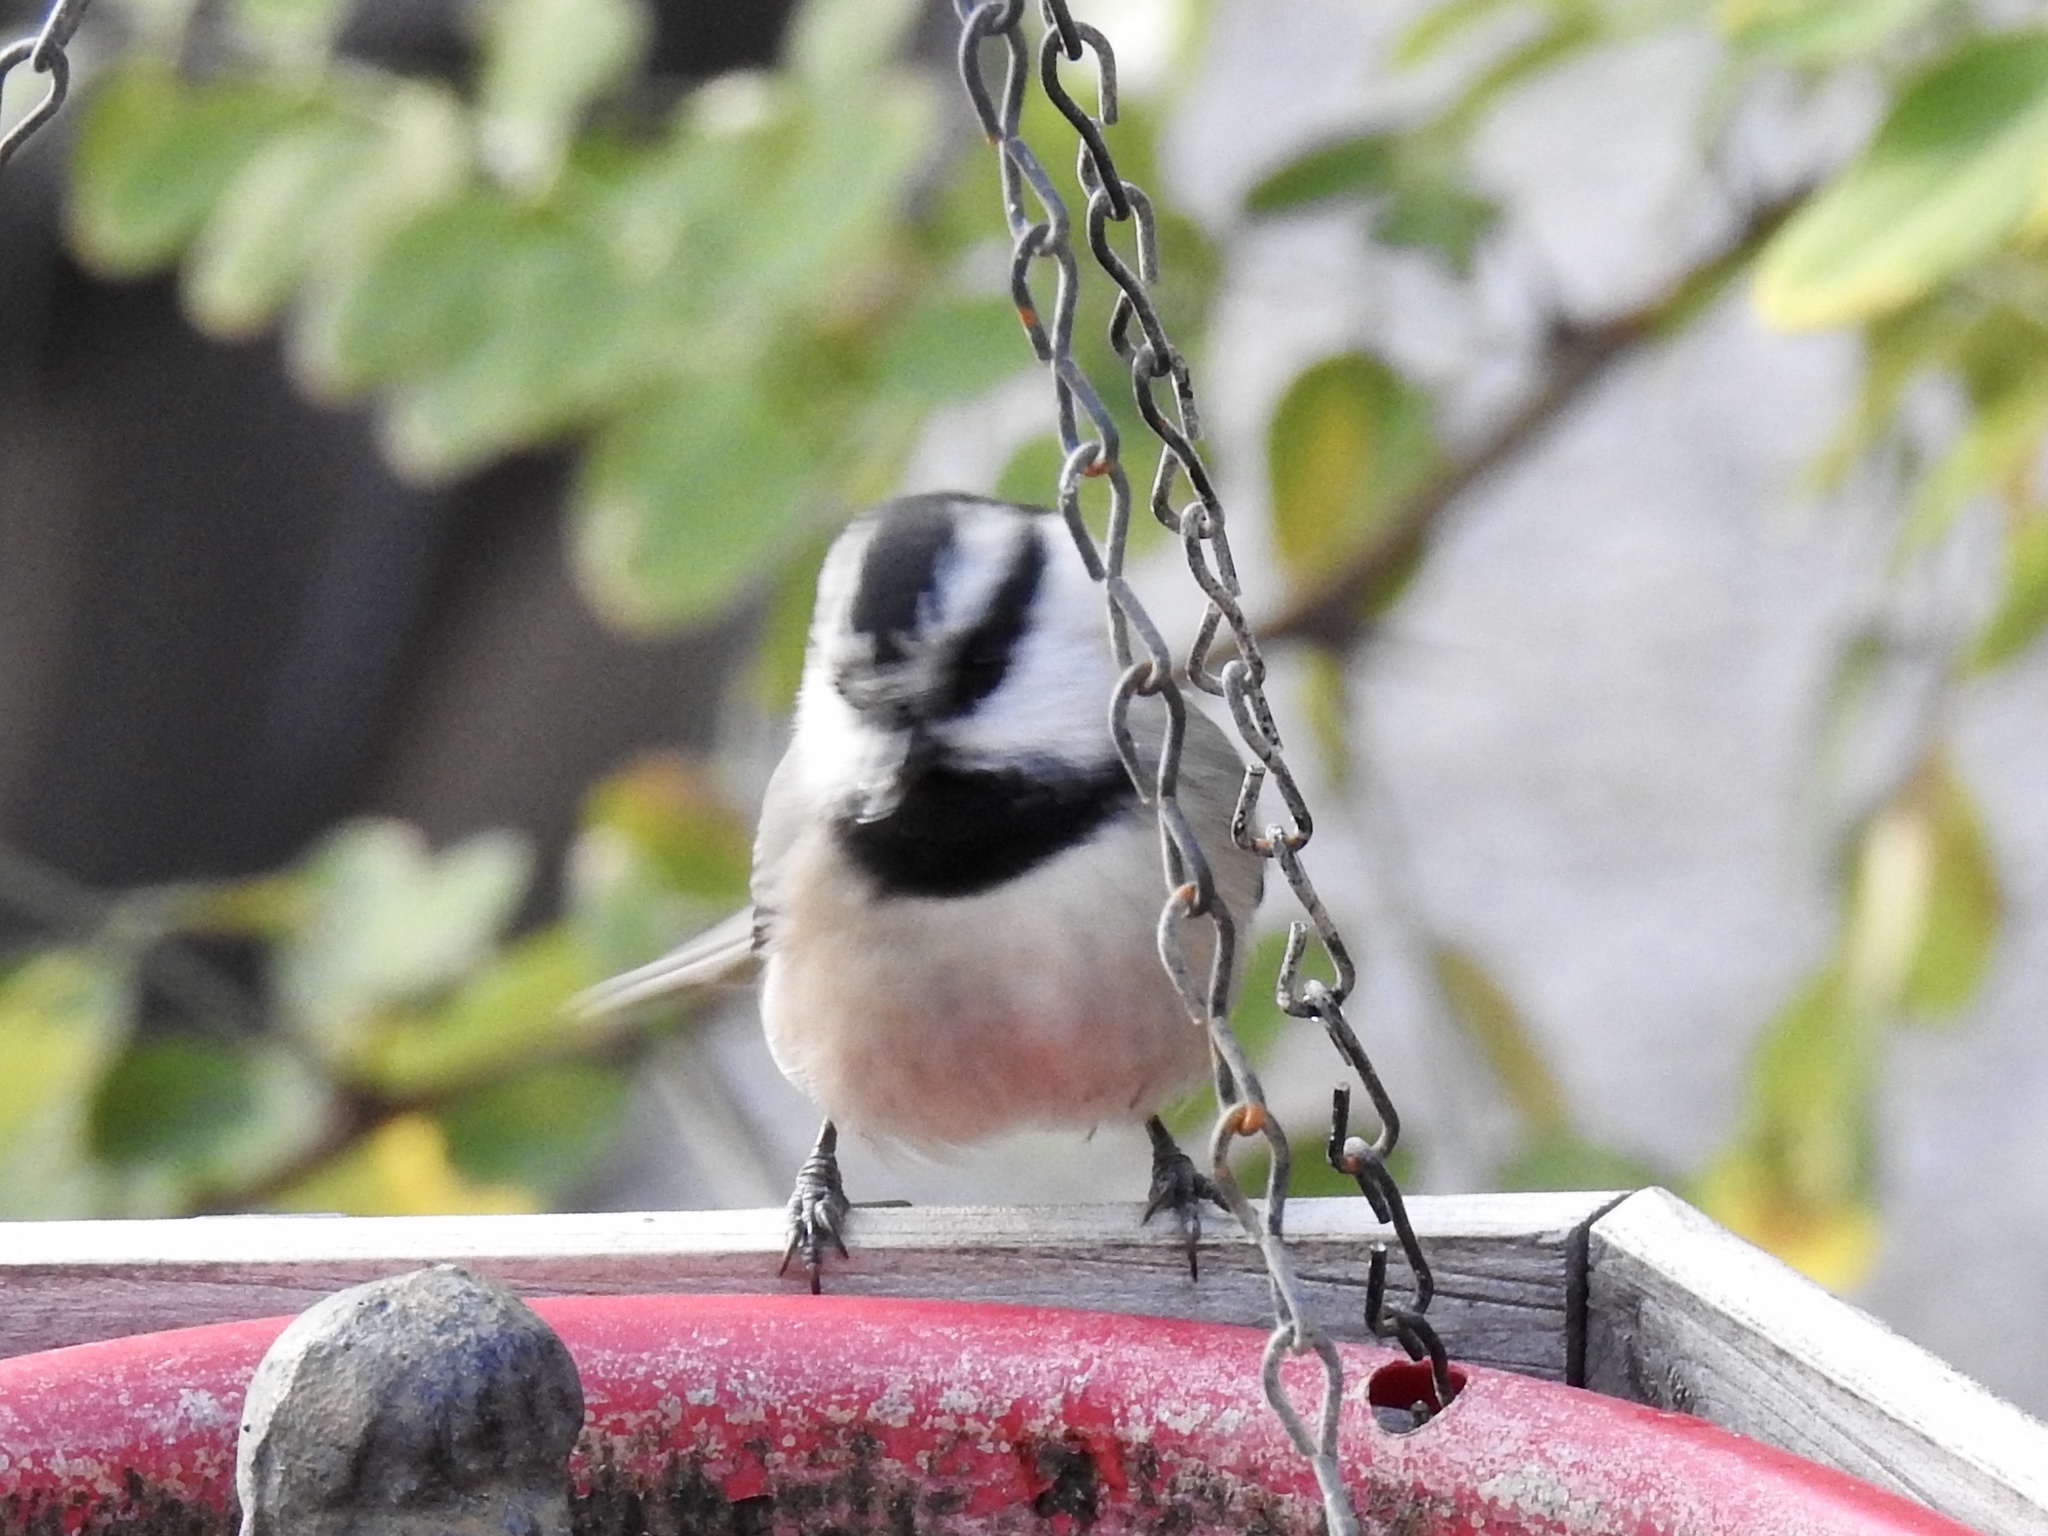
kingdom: Animalia
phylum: Chordata
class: Aves
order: Passeriformes
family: Paridae
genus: Poecile
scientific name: Poecile gambeli
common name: Mountain chickadee
